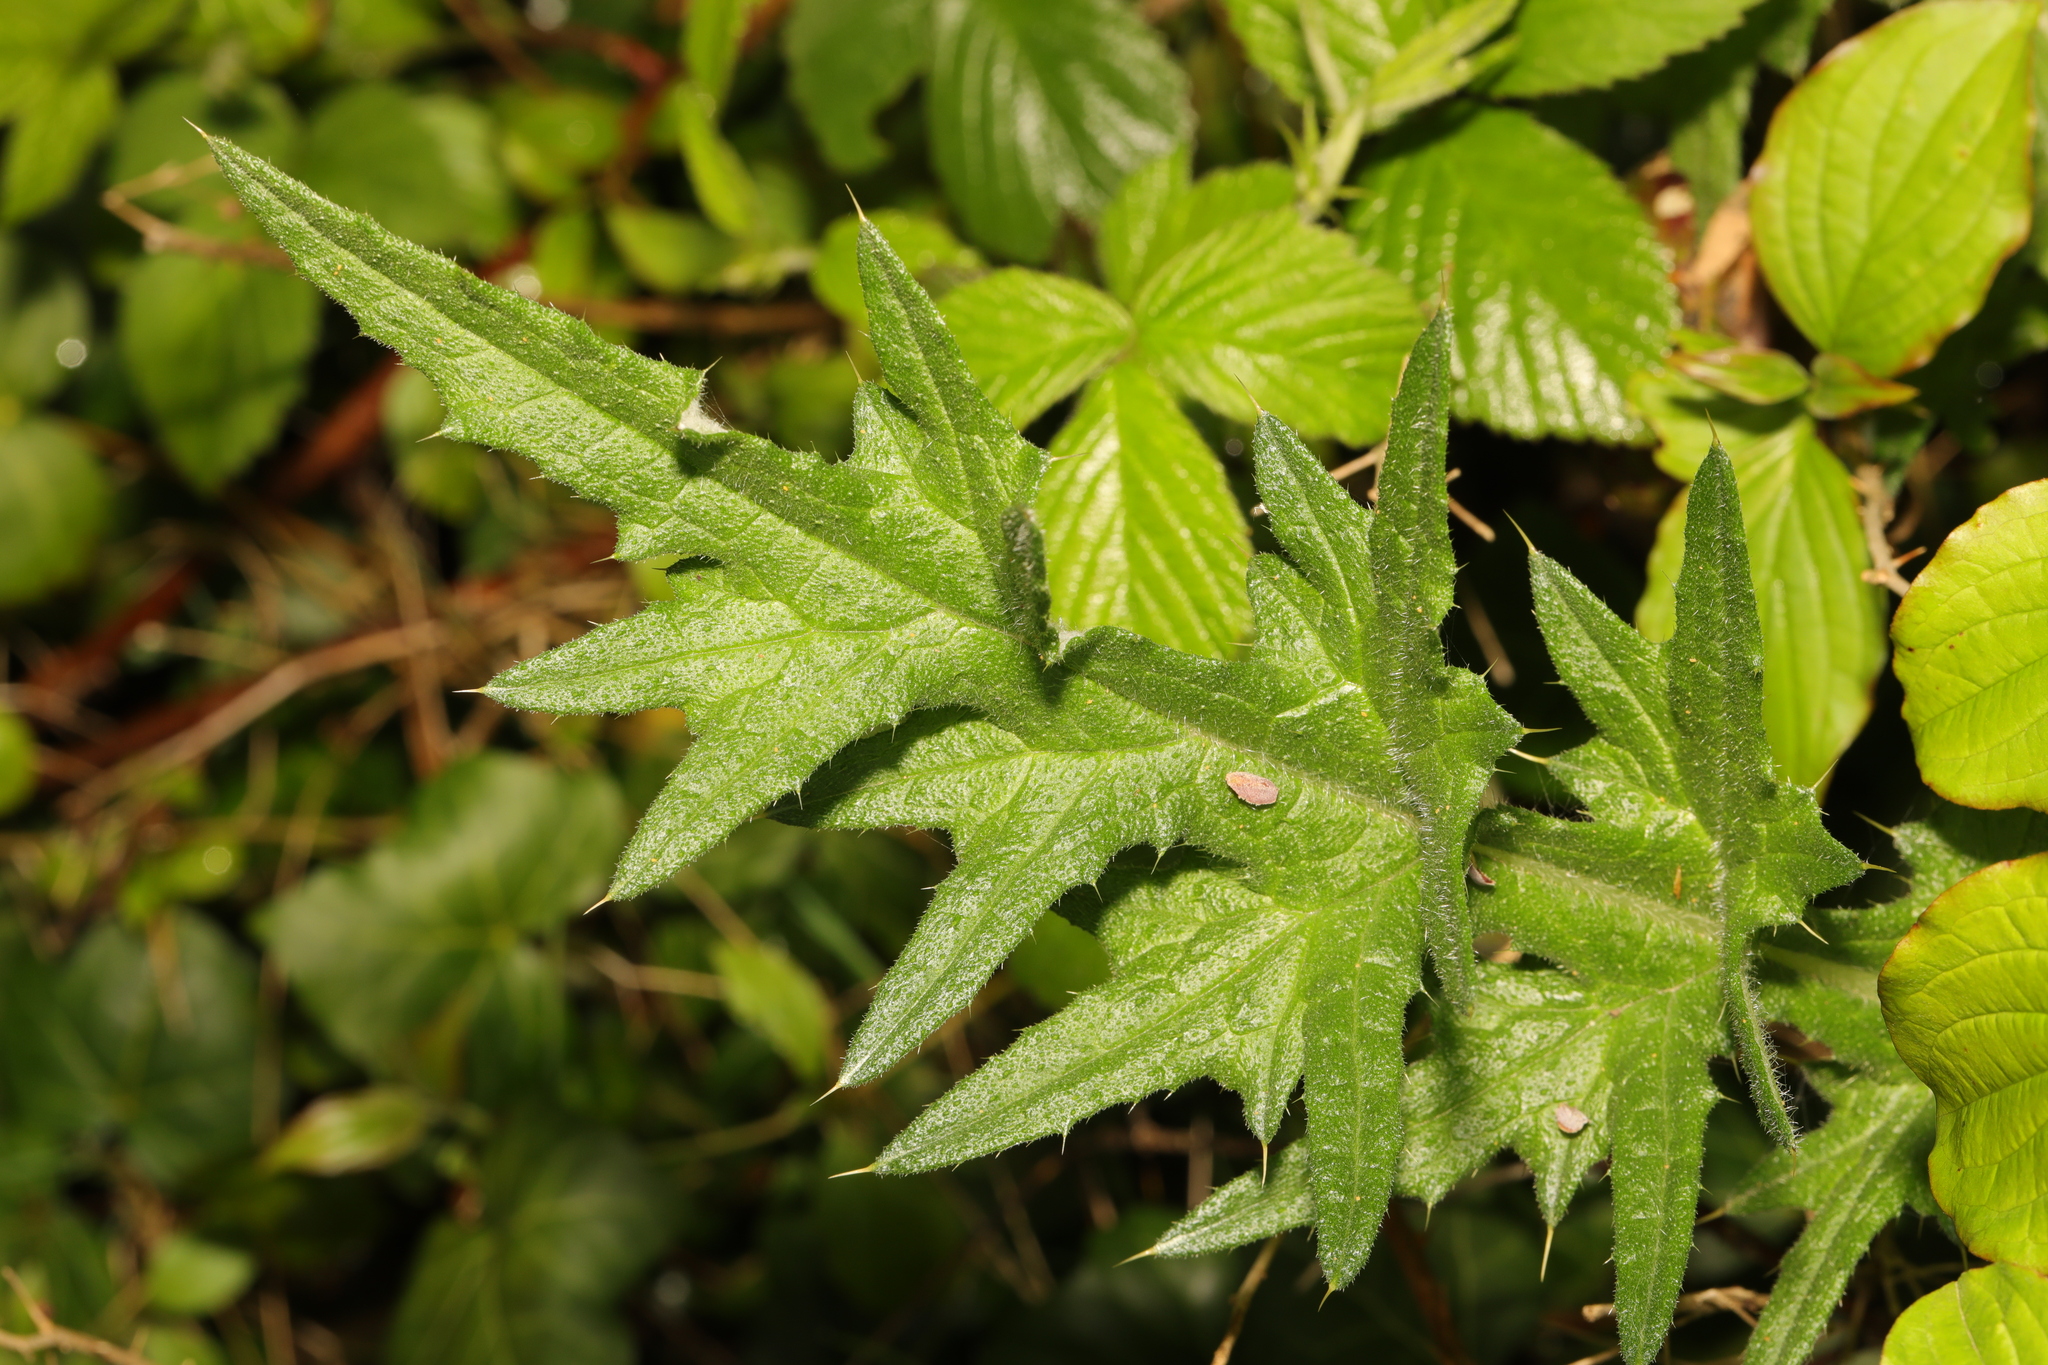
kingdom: Plantae
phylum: Tracheophyta
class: Magnoliopsida
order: Asterales
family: Asteraceae
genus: Cirsium
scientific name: Cirsium vulgare
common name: Bull thistle
